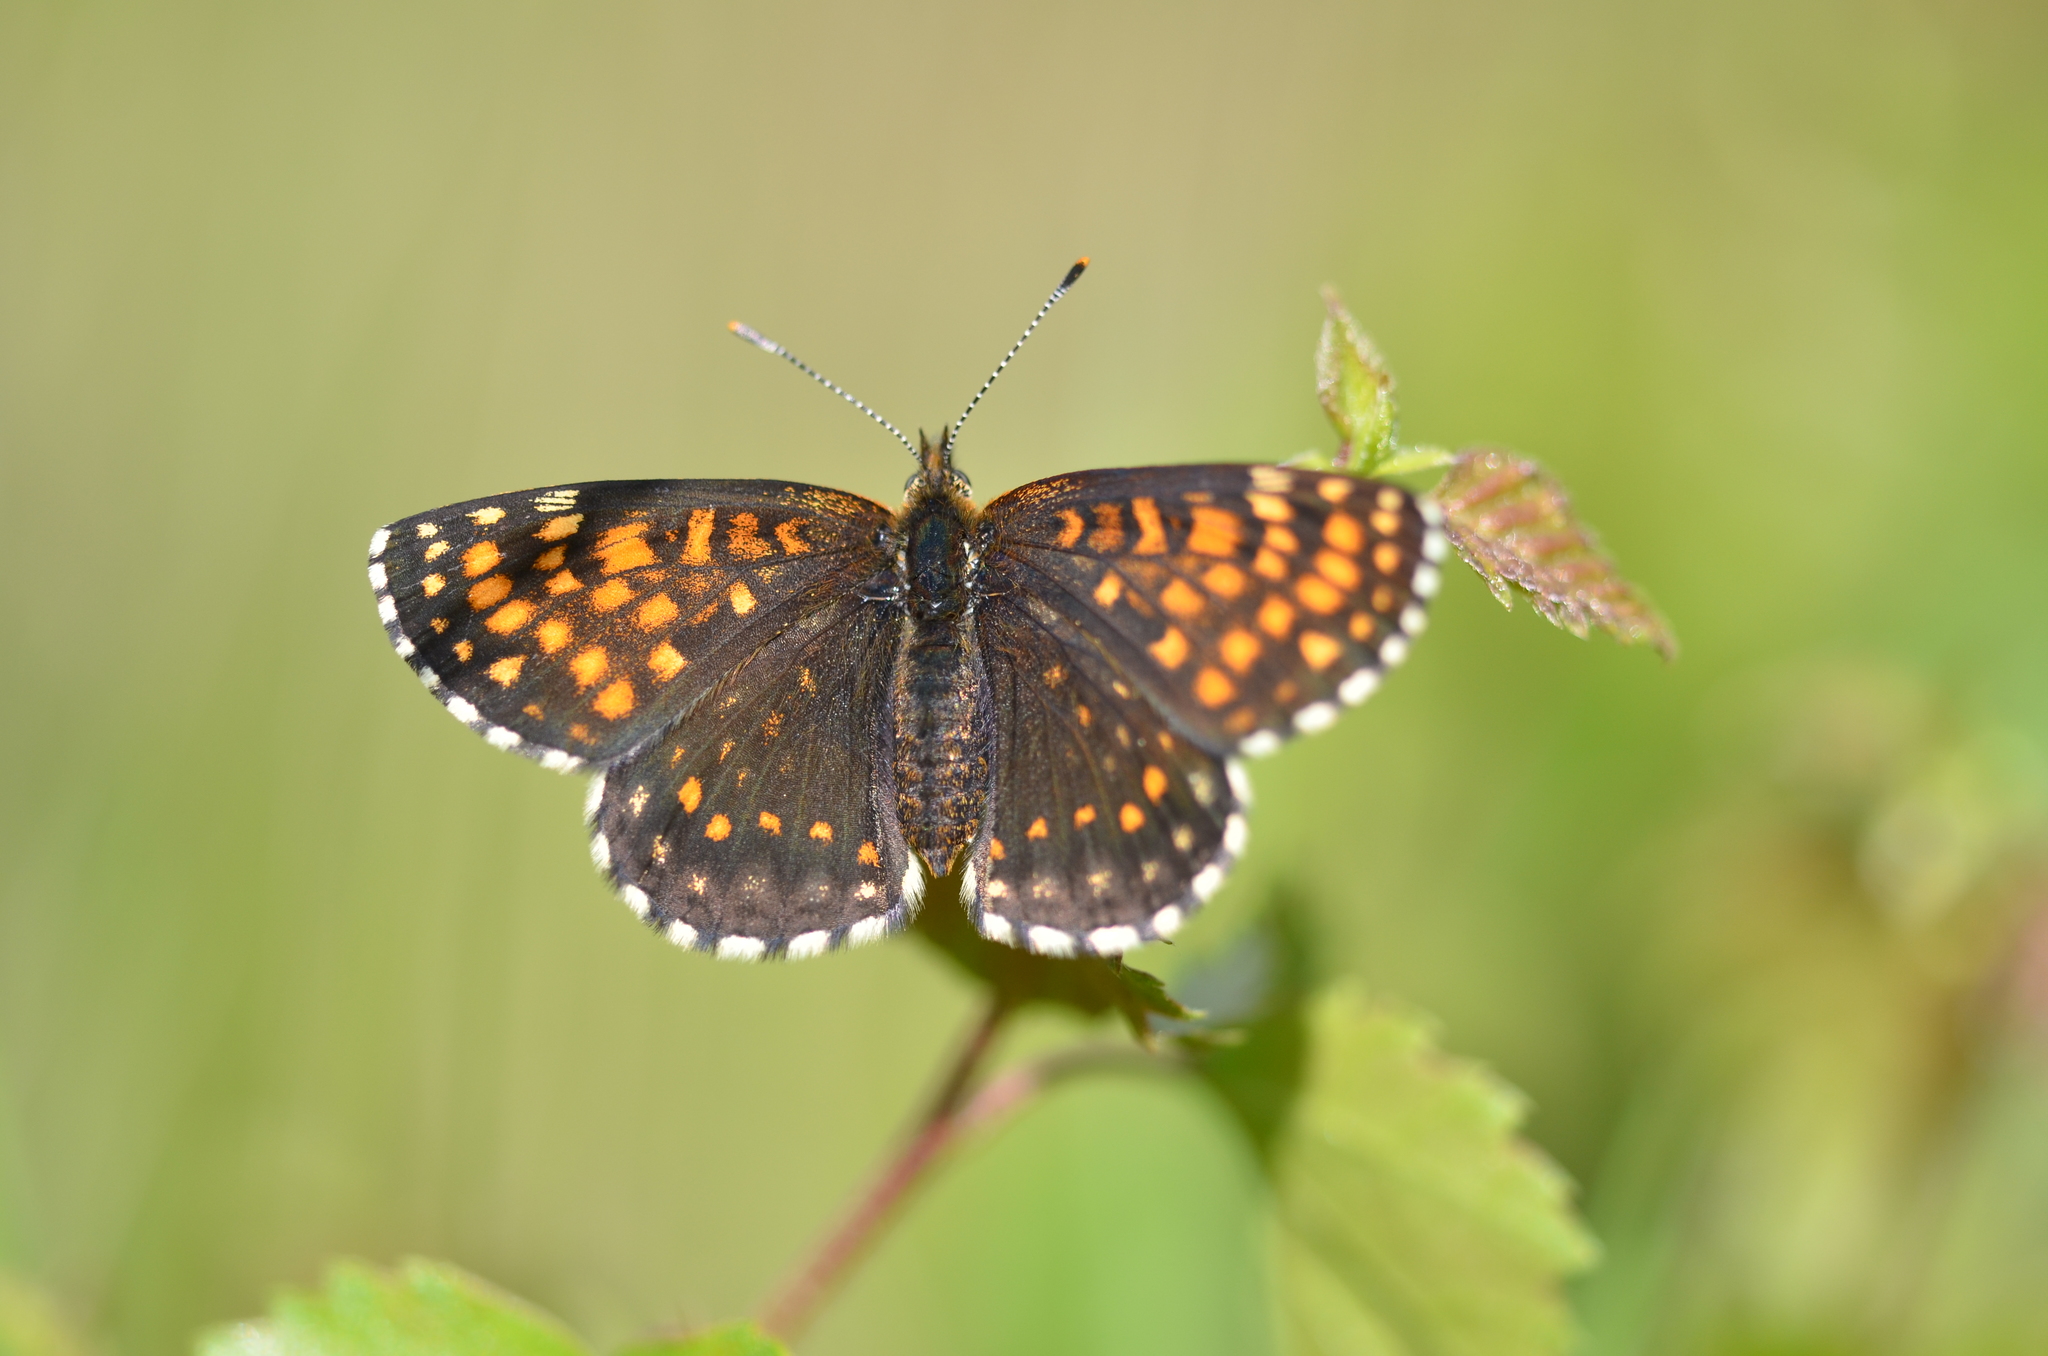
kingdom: Animalia
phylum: Arthropoda
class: Insecta
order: Lepidoptera
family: Nymphalidae
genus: Melitaea
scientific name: Melitaea diamina
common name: False heath fritillary
